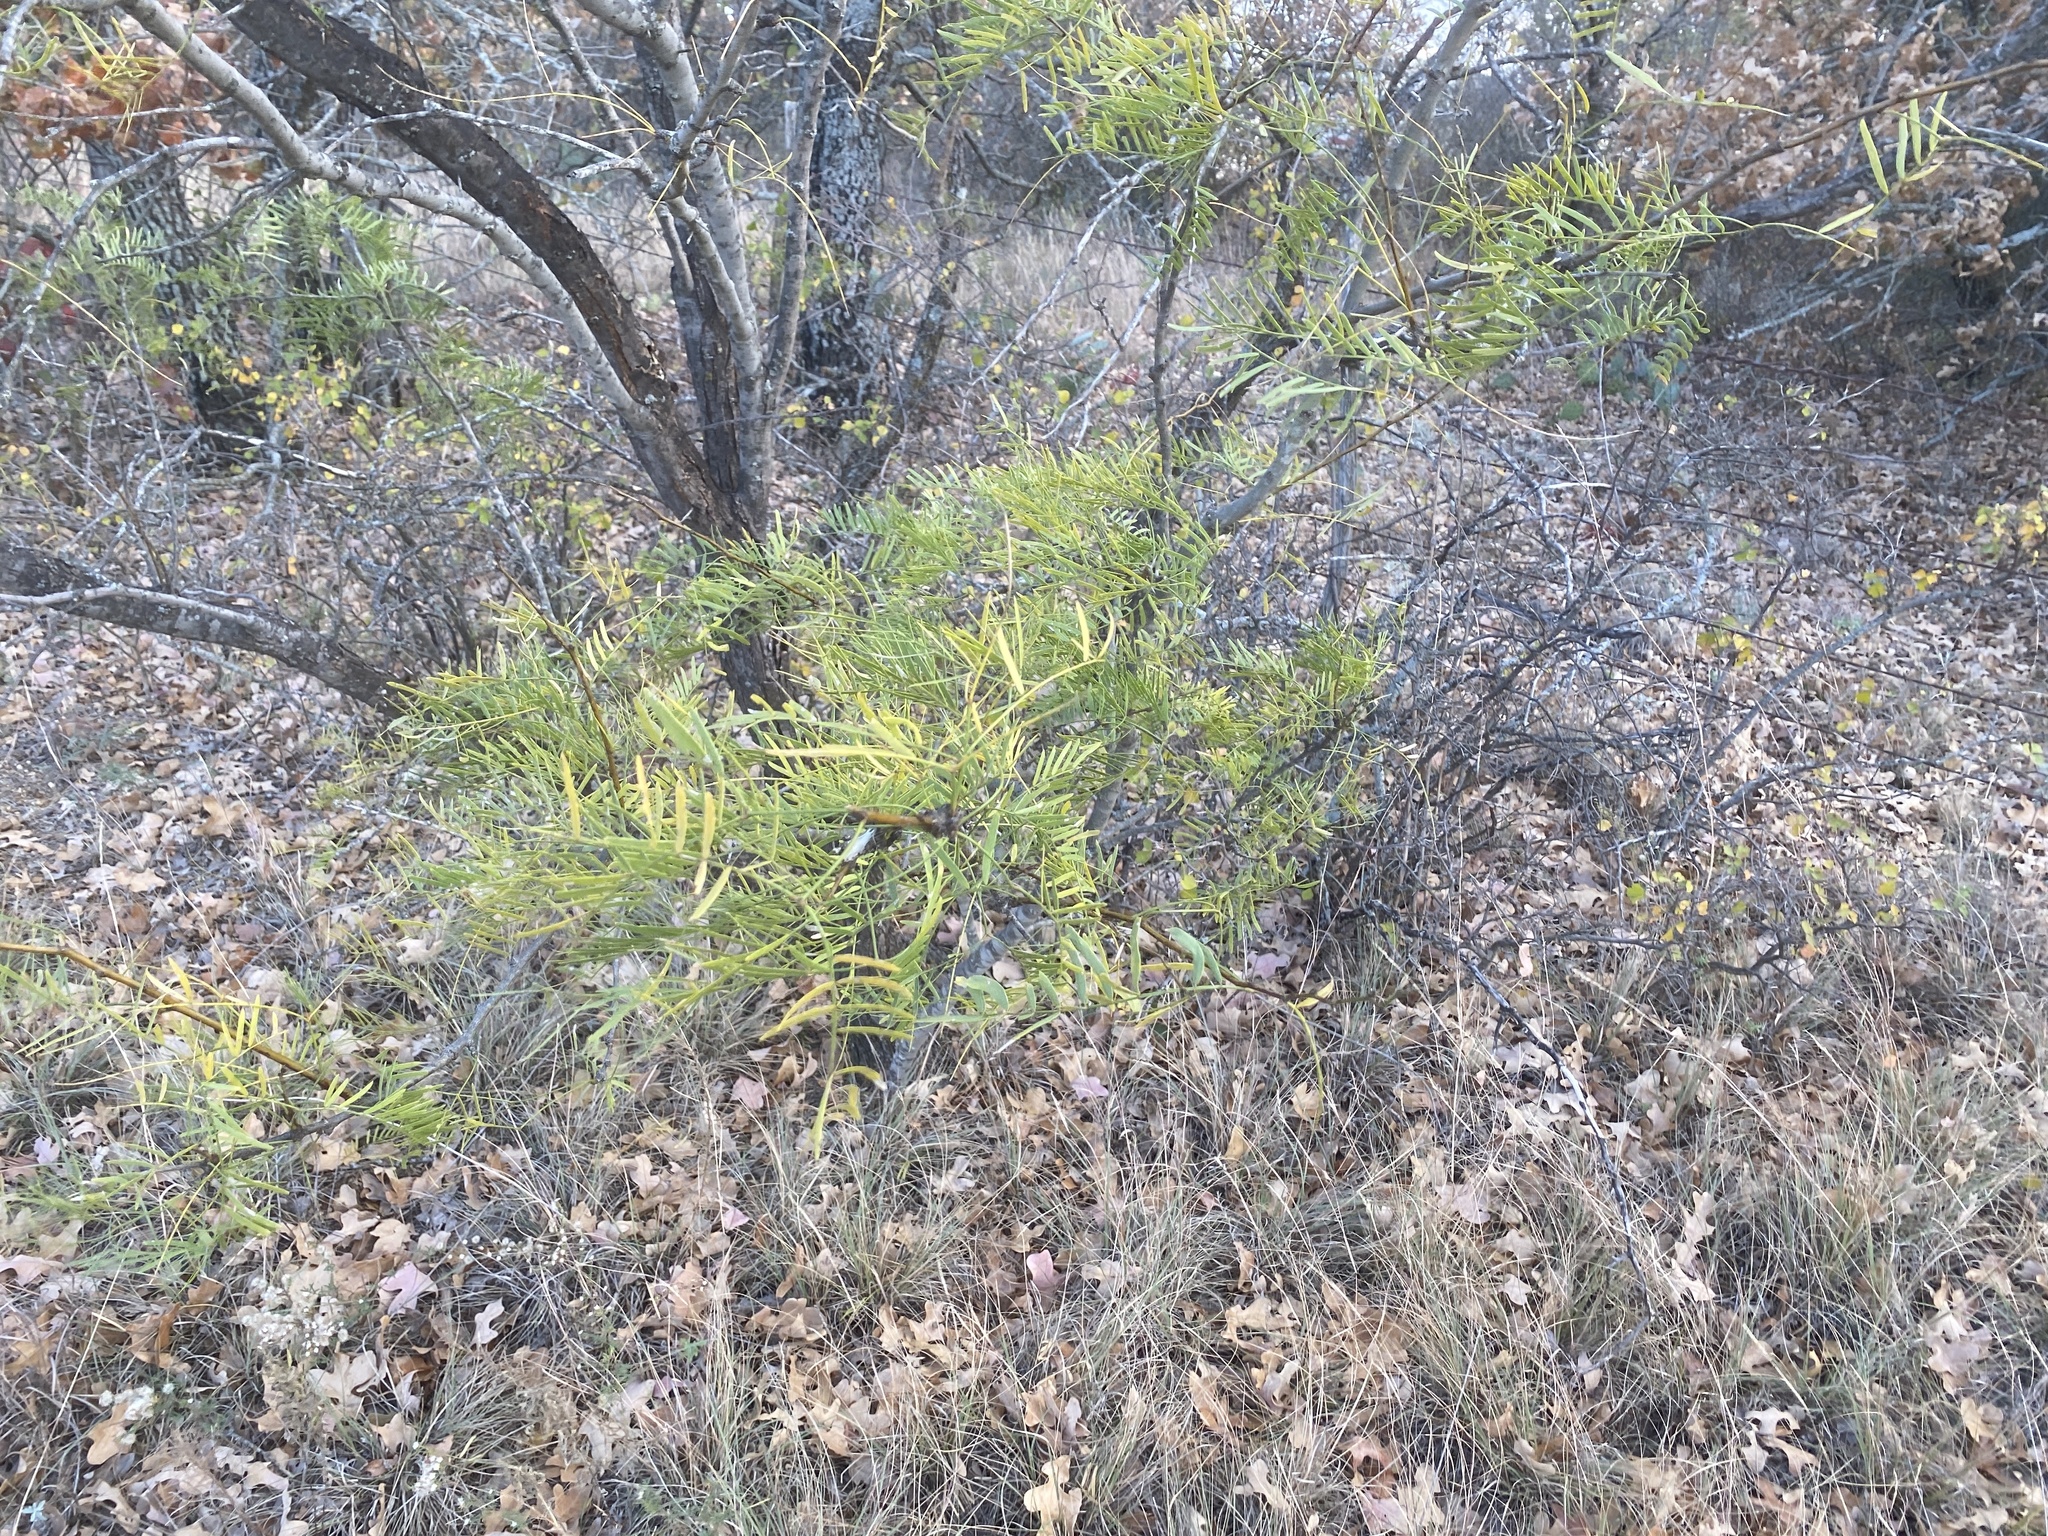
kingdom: Plantae
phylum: Tracheophyta
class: Magnoliopsida
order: Fabales
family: Fabaceae
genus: Prosopis
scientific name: Prosopis glandulosa
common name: Honey mesquite
